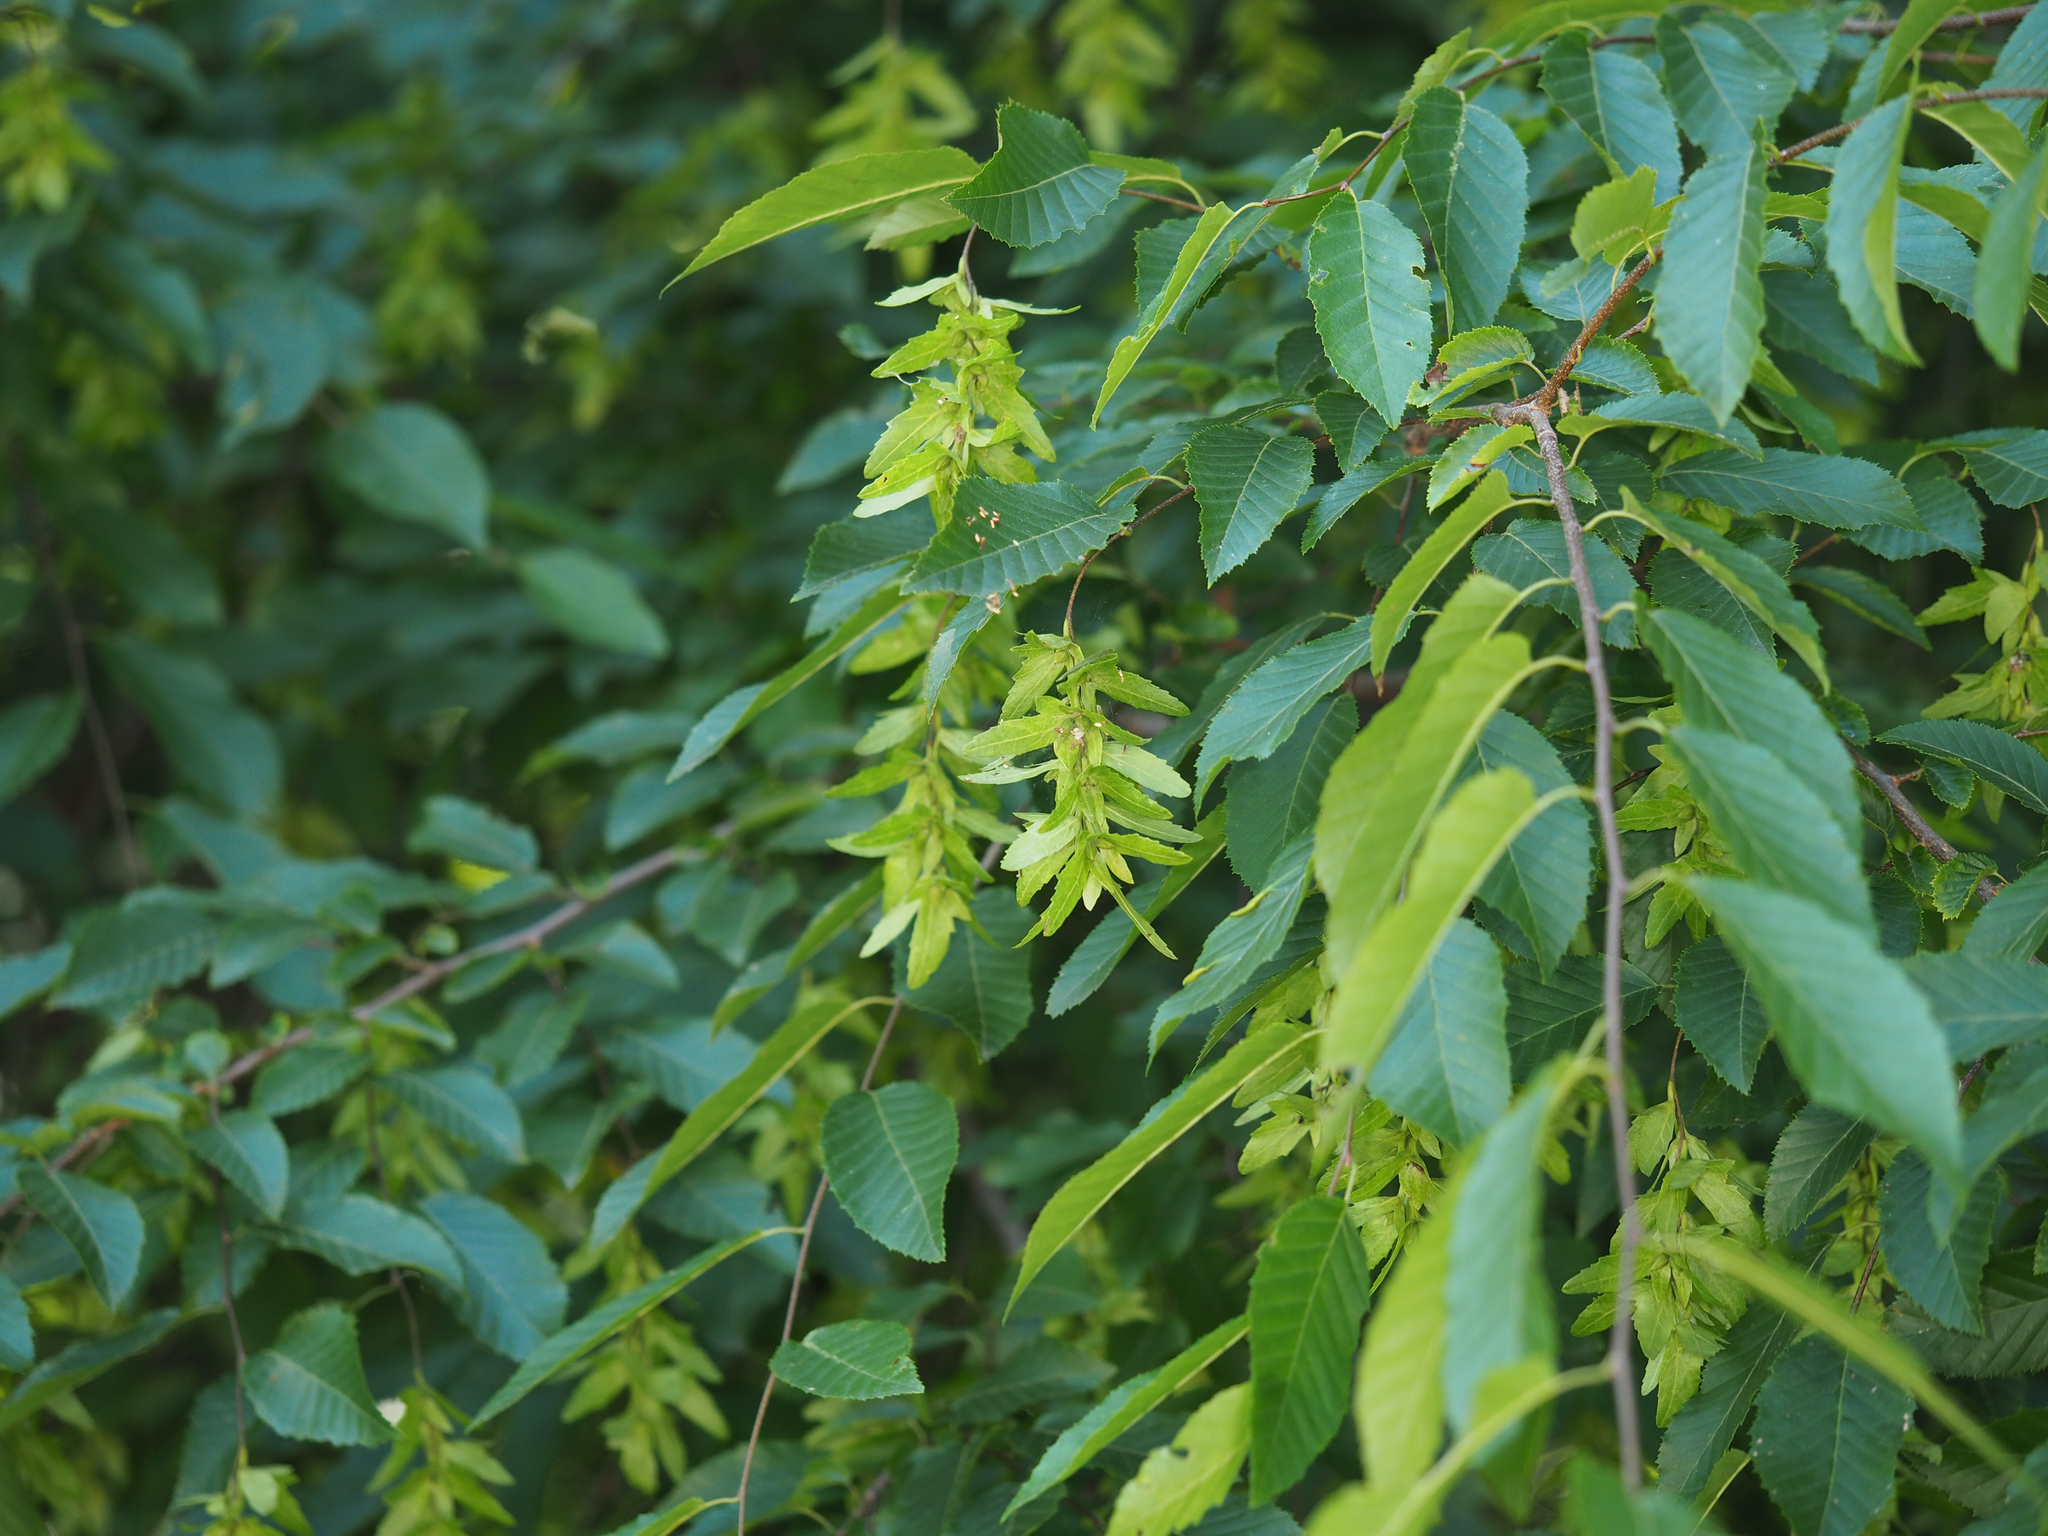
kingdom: Plantae
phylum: Tracheophyta
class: Magnoliopsida
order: Fagales
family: Betulaceae
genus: Carpinus
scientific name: Carpinus caroliniana
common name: American hornbeam
